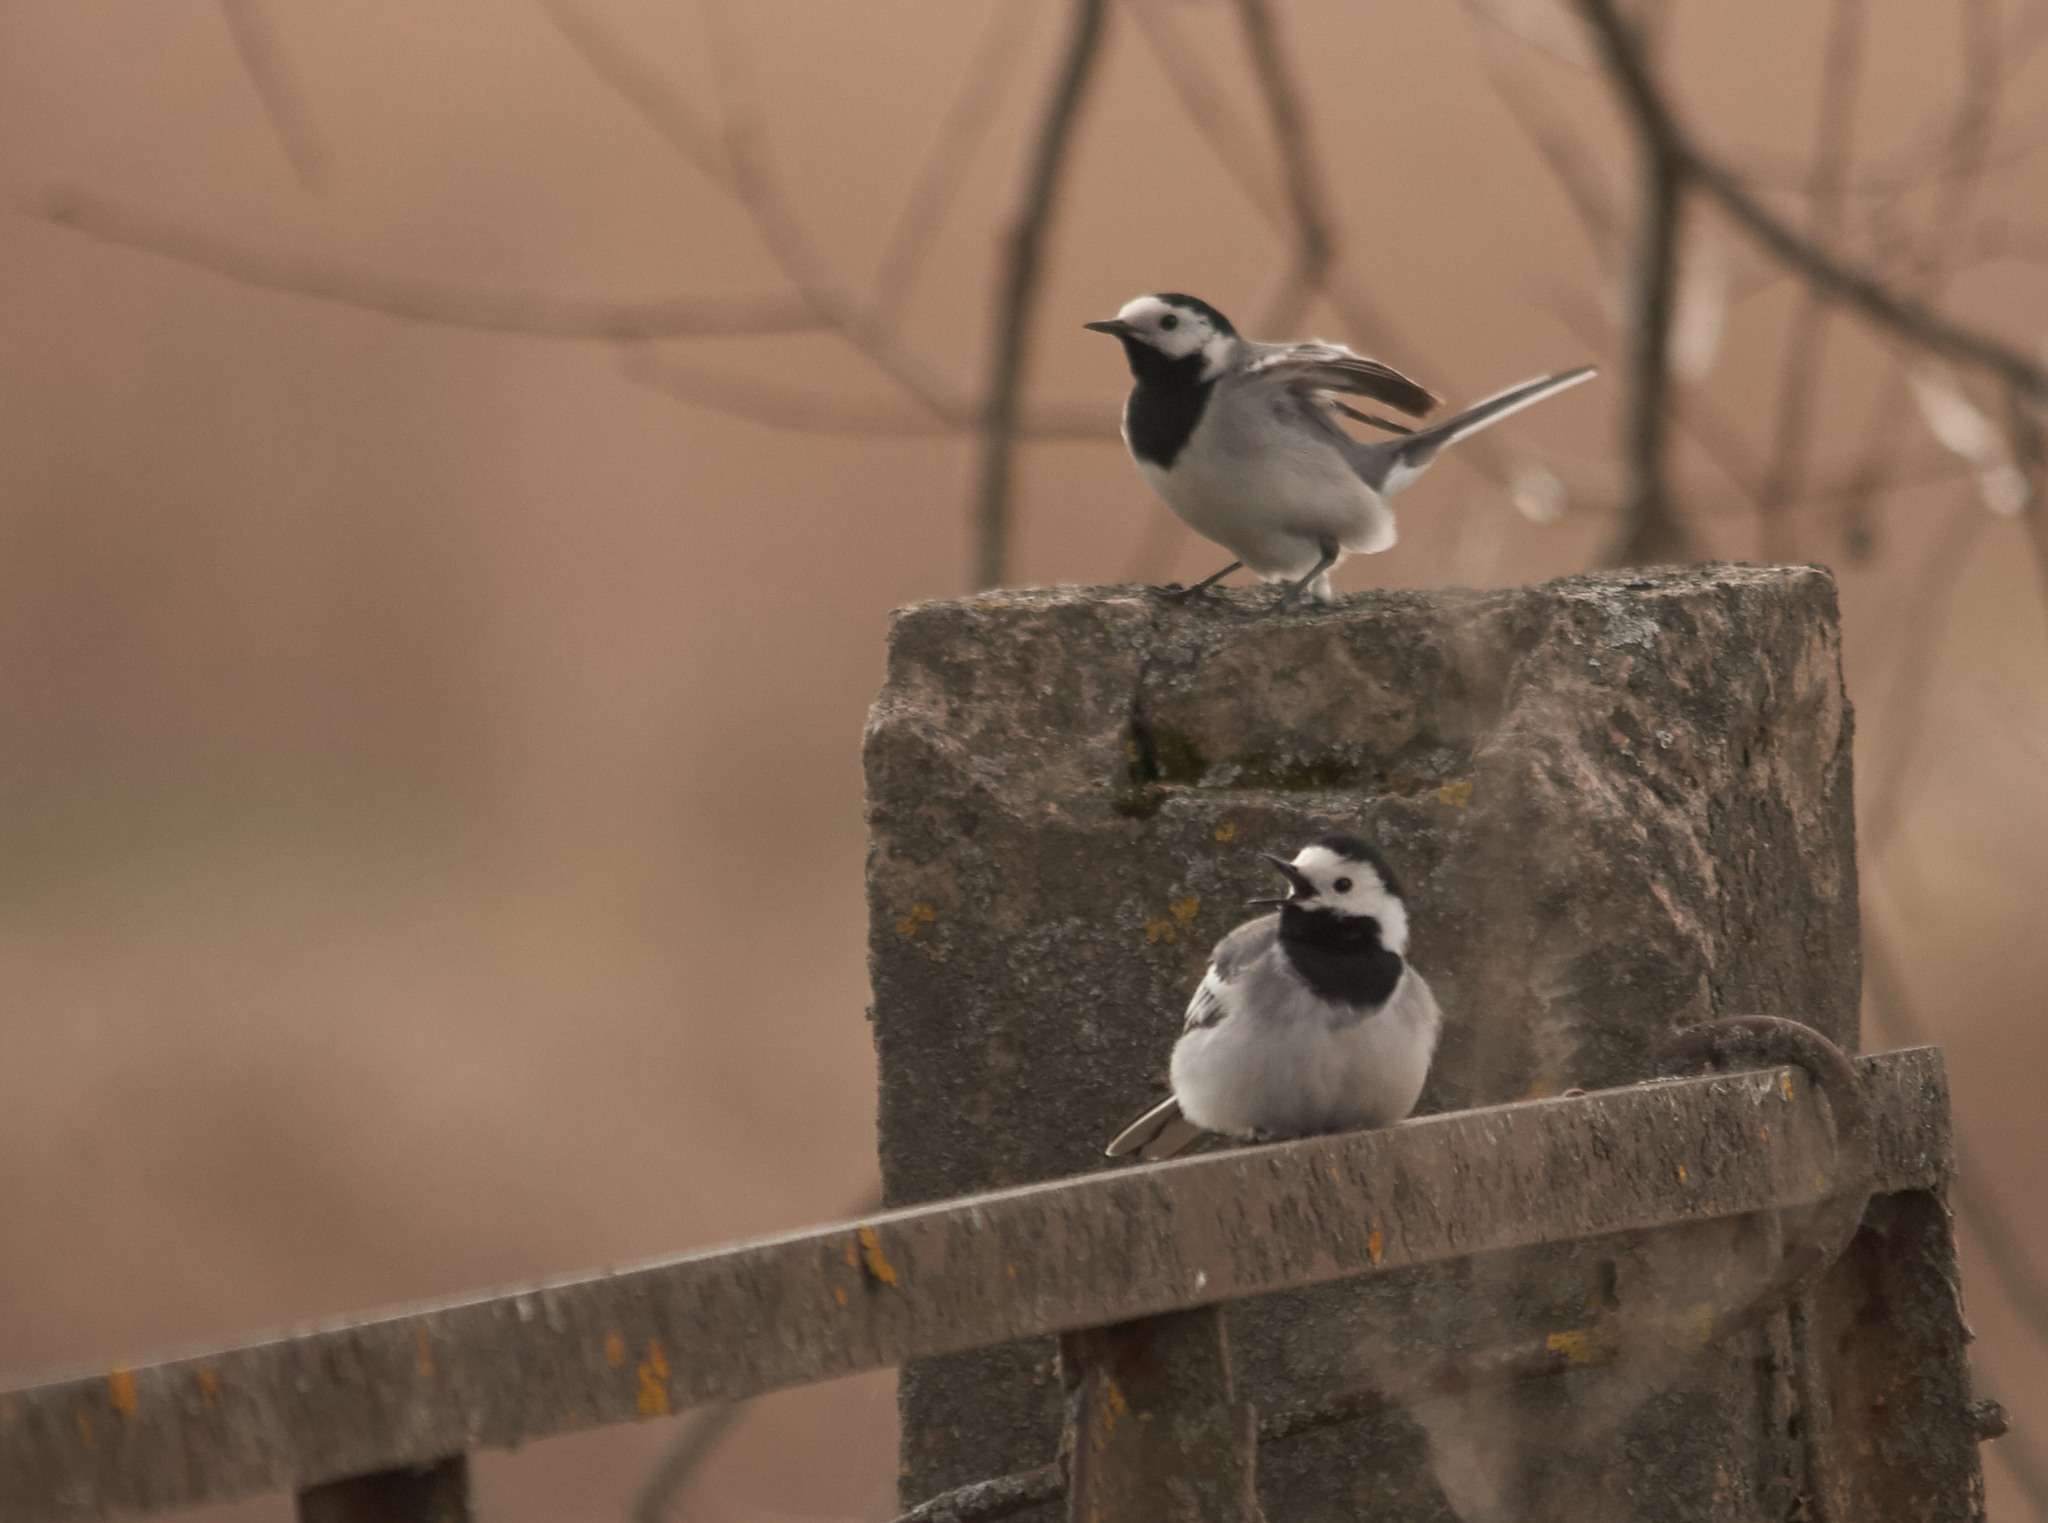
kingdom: Animalia
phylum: Chordata
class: Aves
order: Passeriformes
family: Motacillidae
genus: Motacilla
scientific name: Motacilla alba
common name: White wagtail
